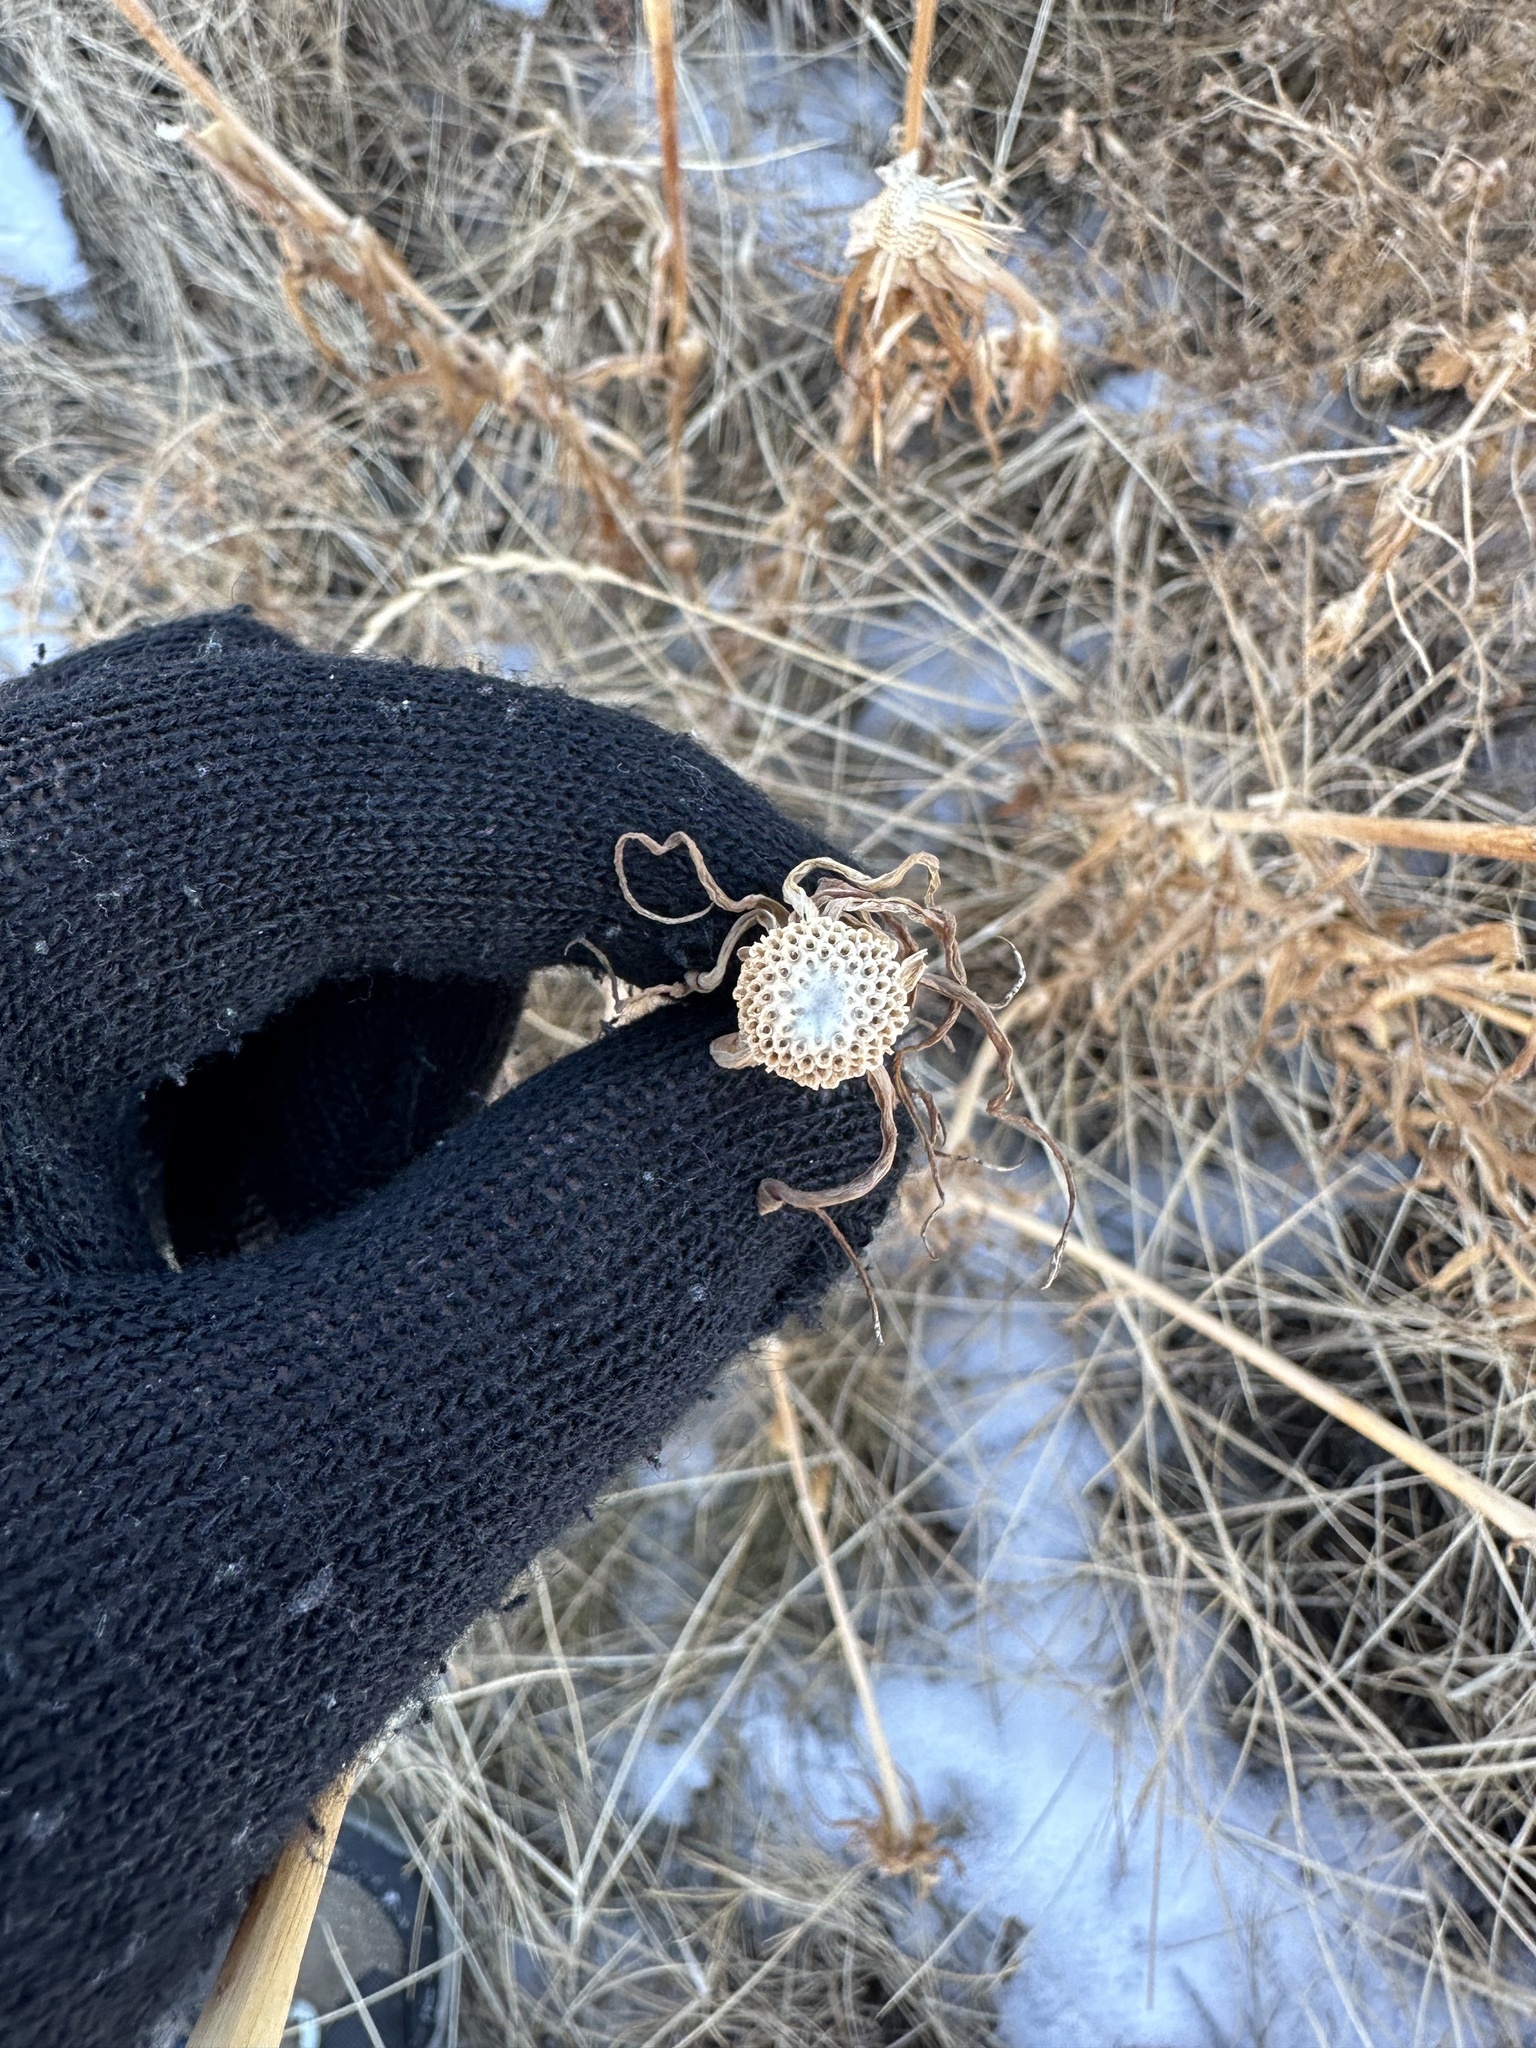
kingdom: Plantae
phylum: Tracheophyta
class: Magnoliopsida
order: Asterales
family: Asteraceae
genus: Tragopogon
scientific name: Tragopogon dubius
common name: Yellow salsify
